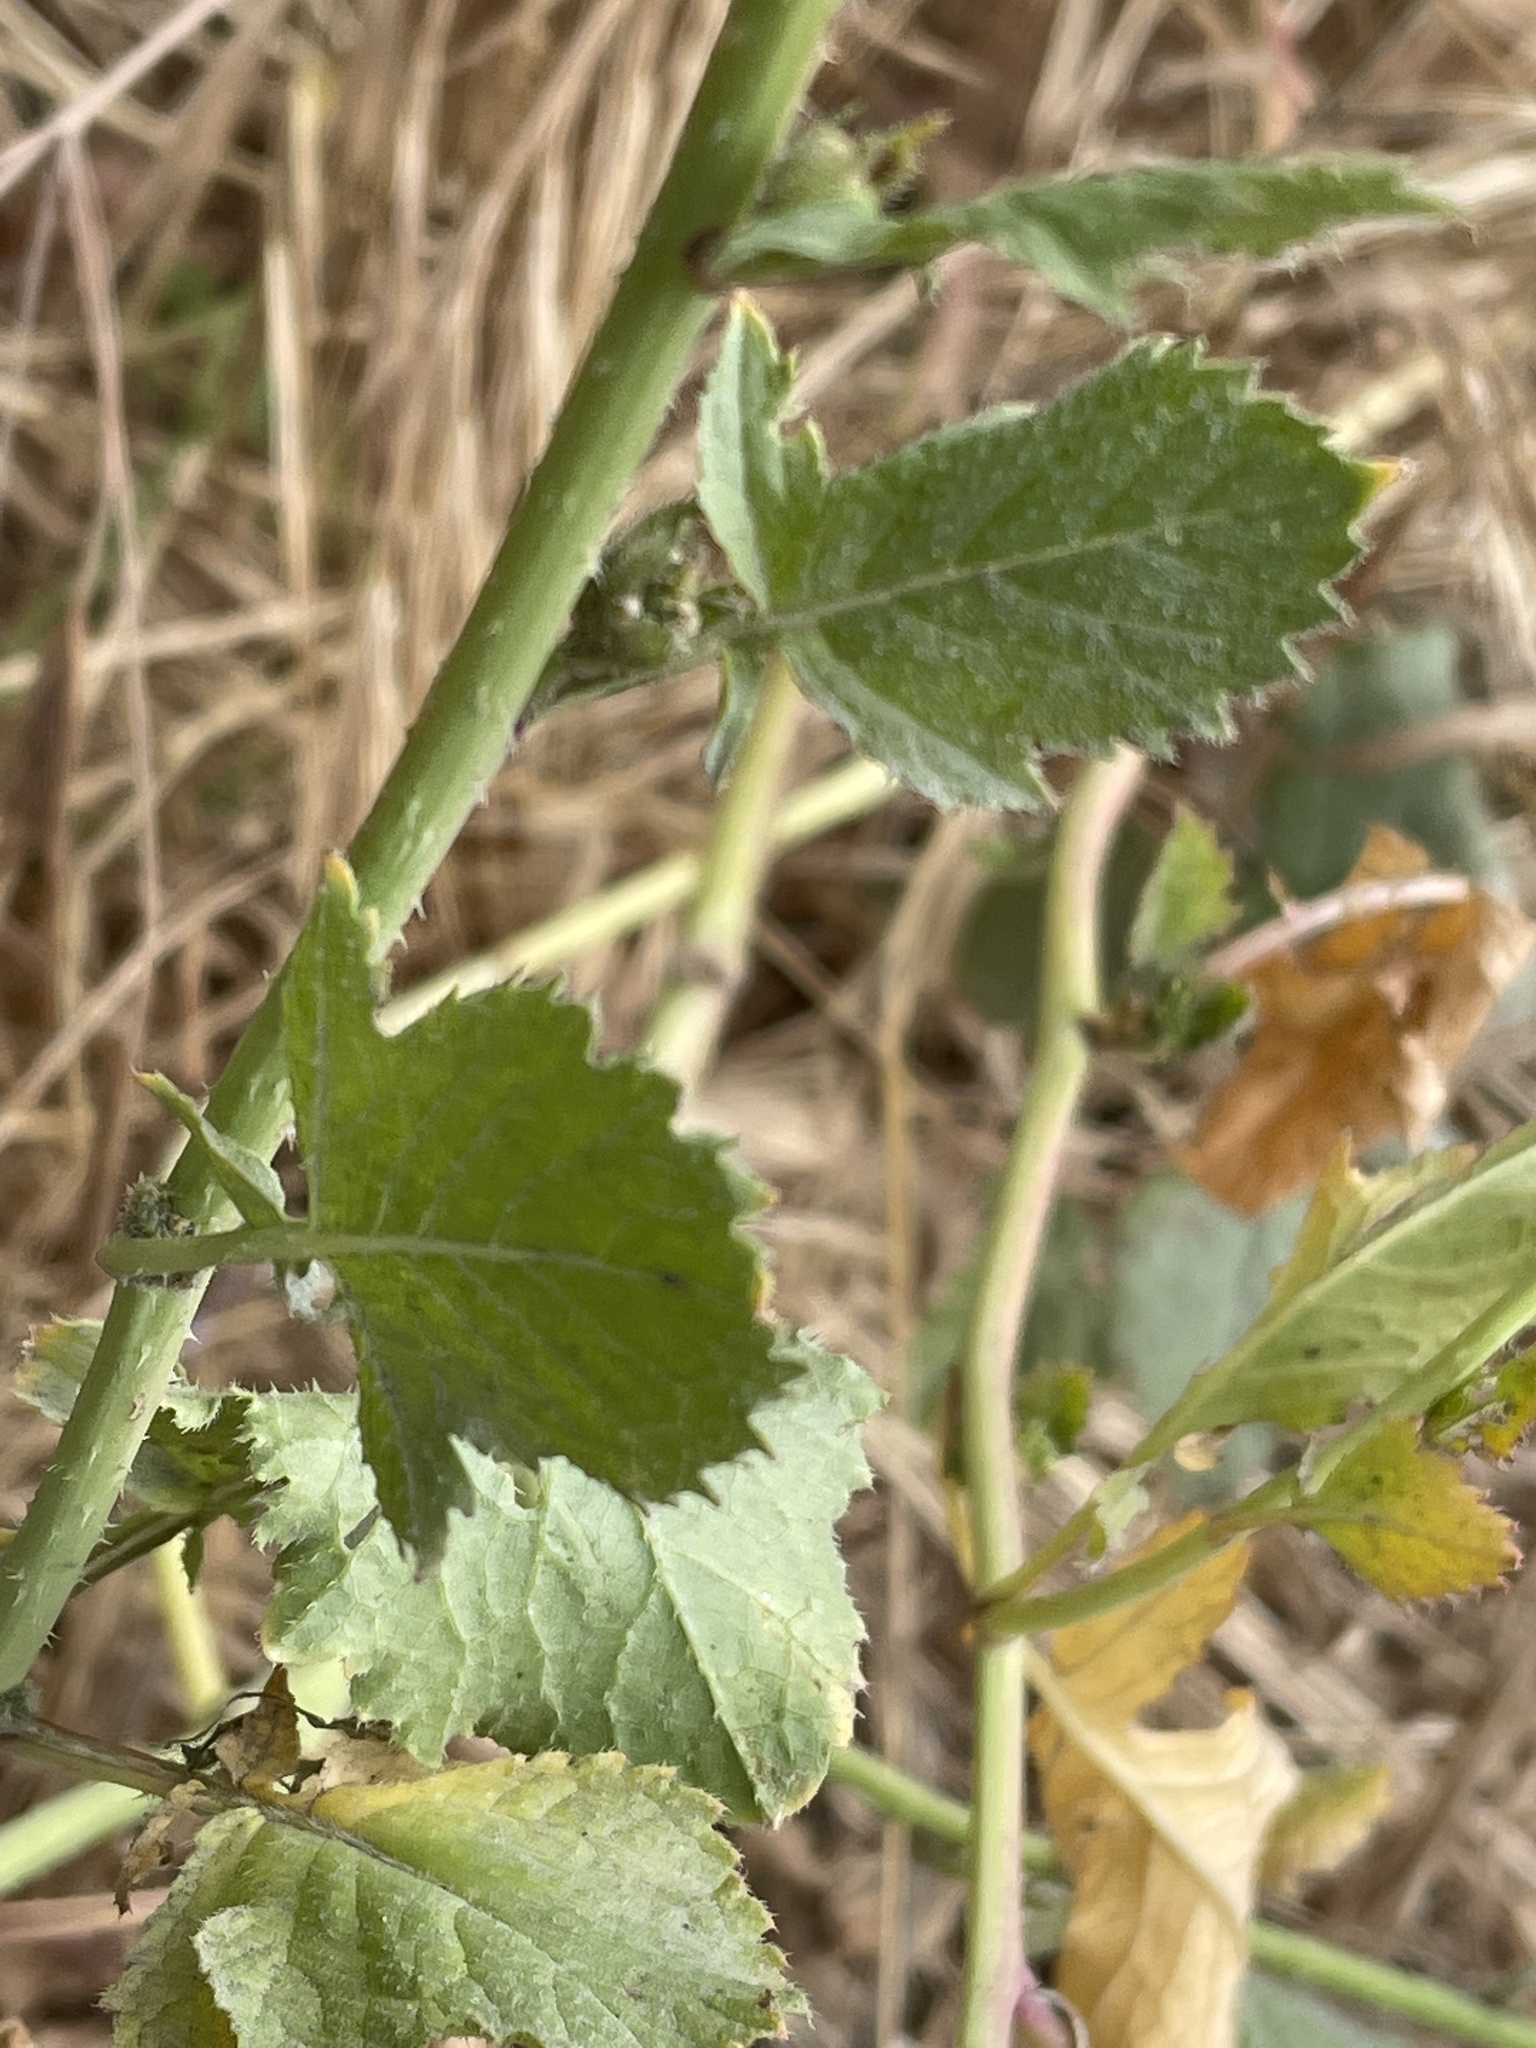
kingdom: Plantae
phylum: Tracheophyta
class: Magnoliopsida
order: Brassicales
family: Brassicaceae
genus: Raphanus
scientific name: Raphanus sativus
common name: Cultivated radish
